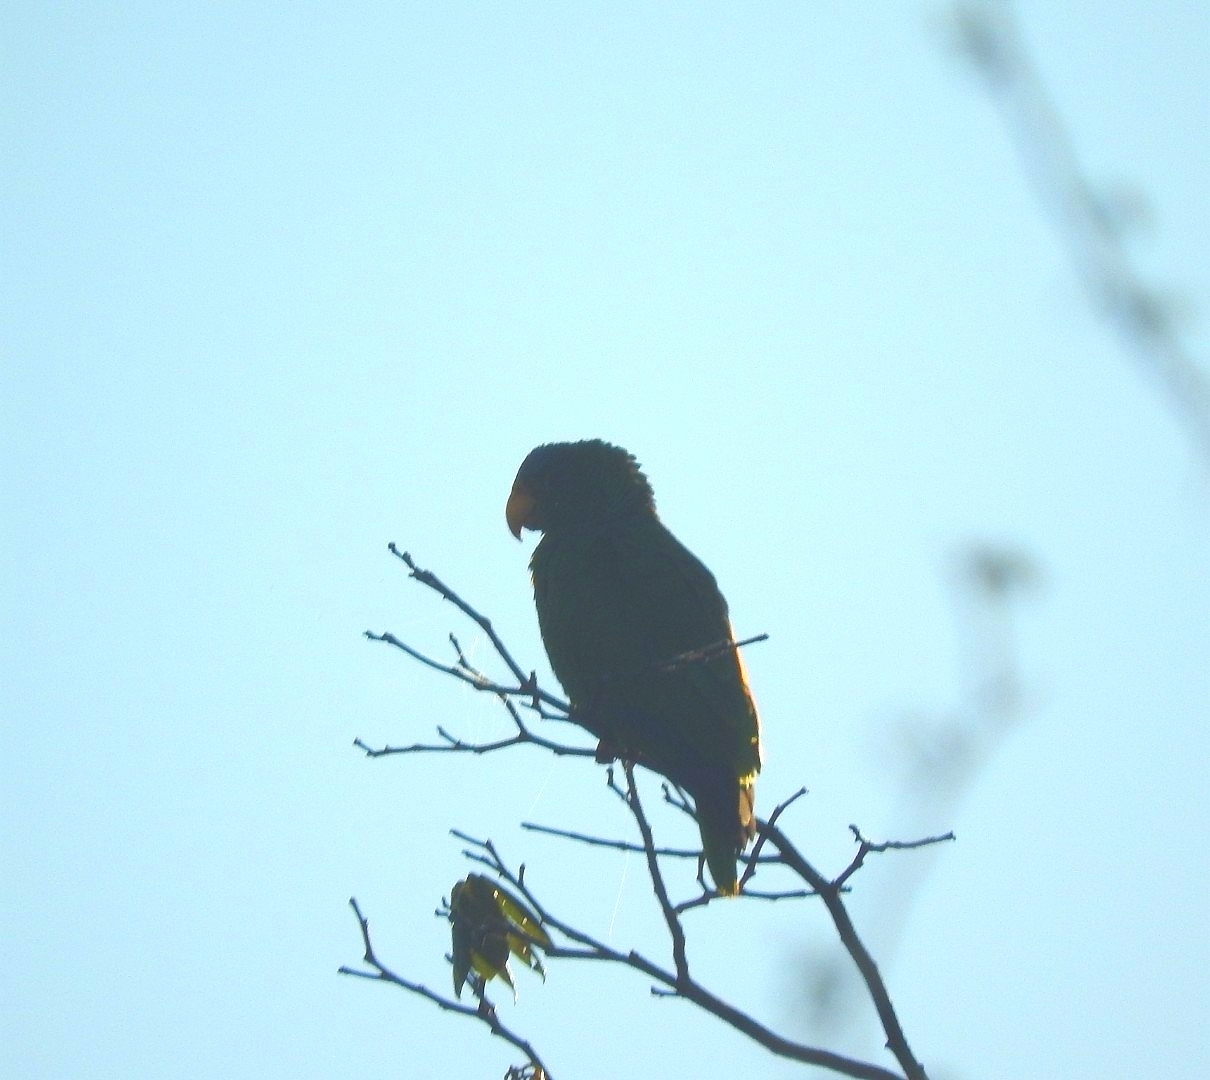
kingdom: Animalia
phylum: Chordata
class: Aves
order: Psittaciformes
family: Psittacidae
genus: Amazona
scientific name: Amazona albifrons
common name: White-fronted amazon
